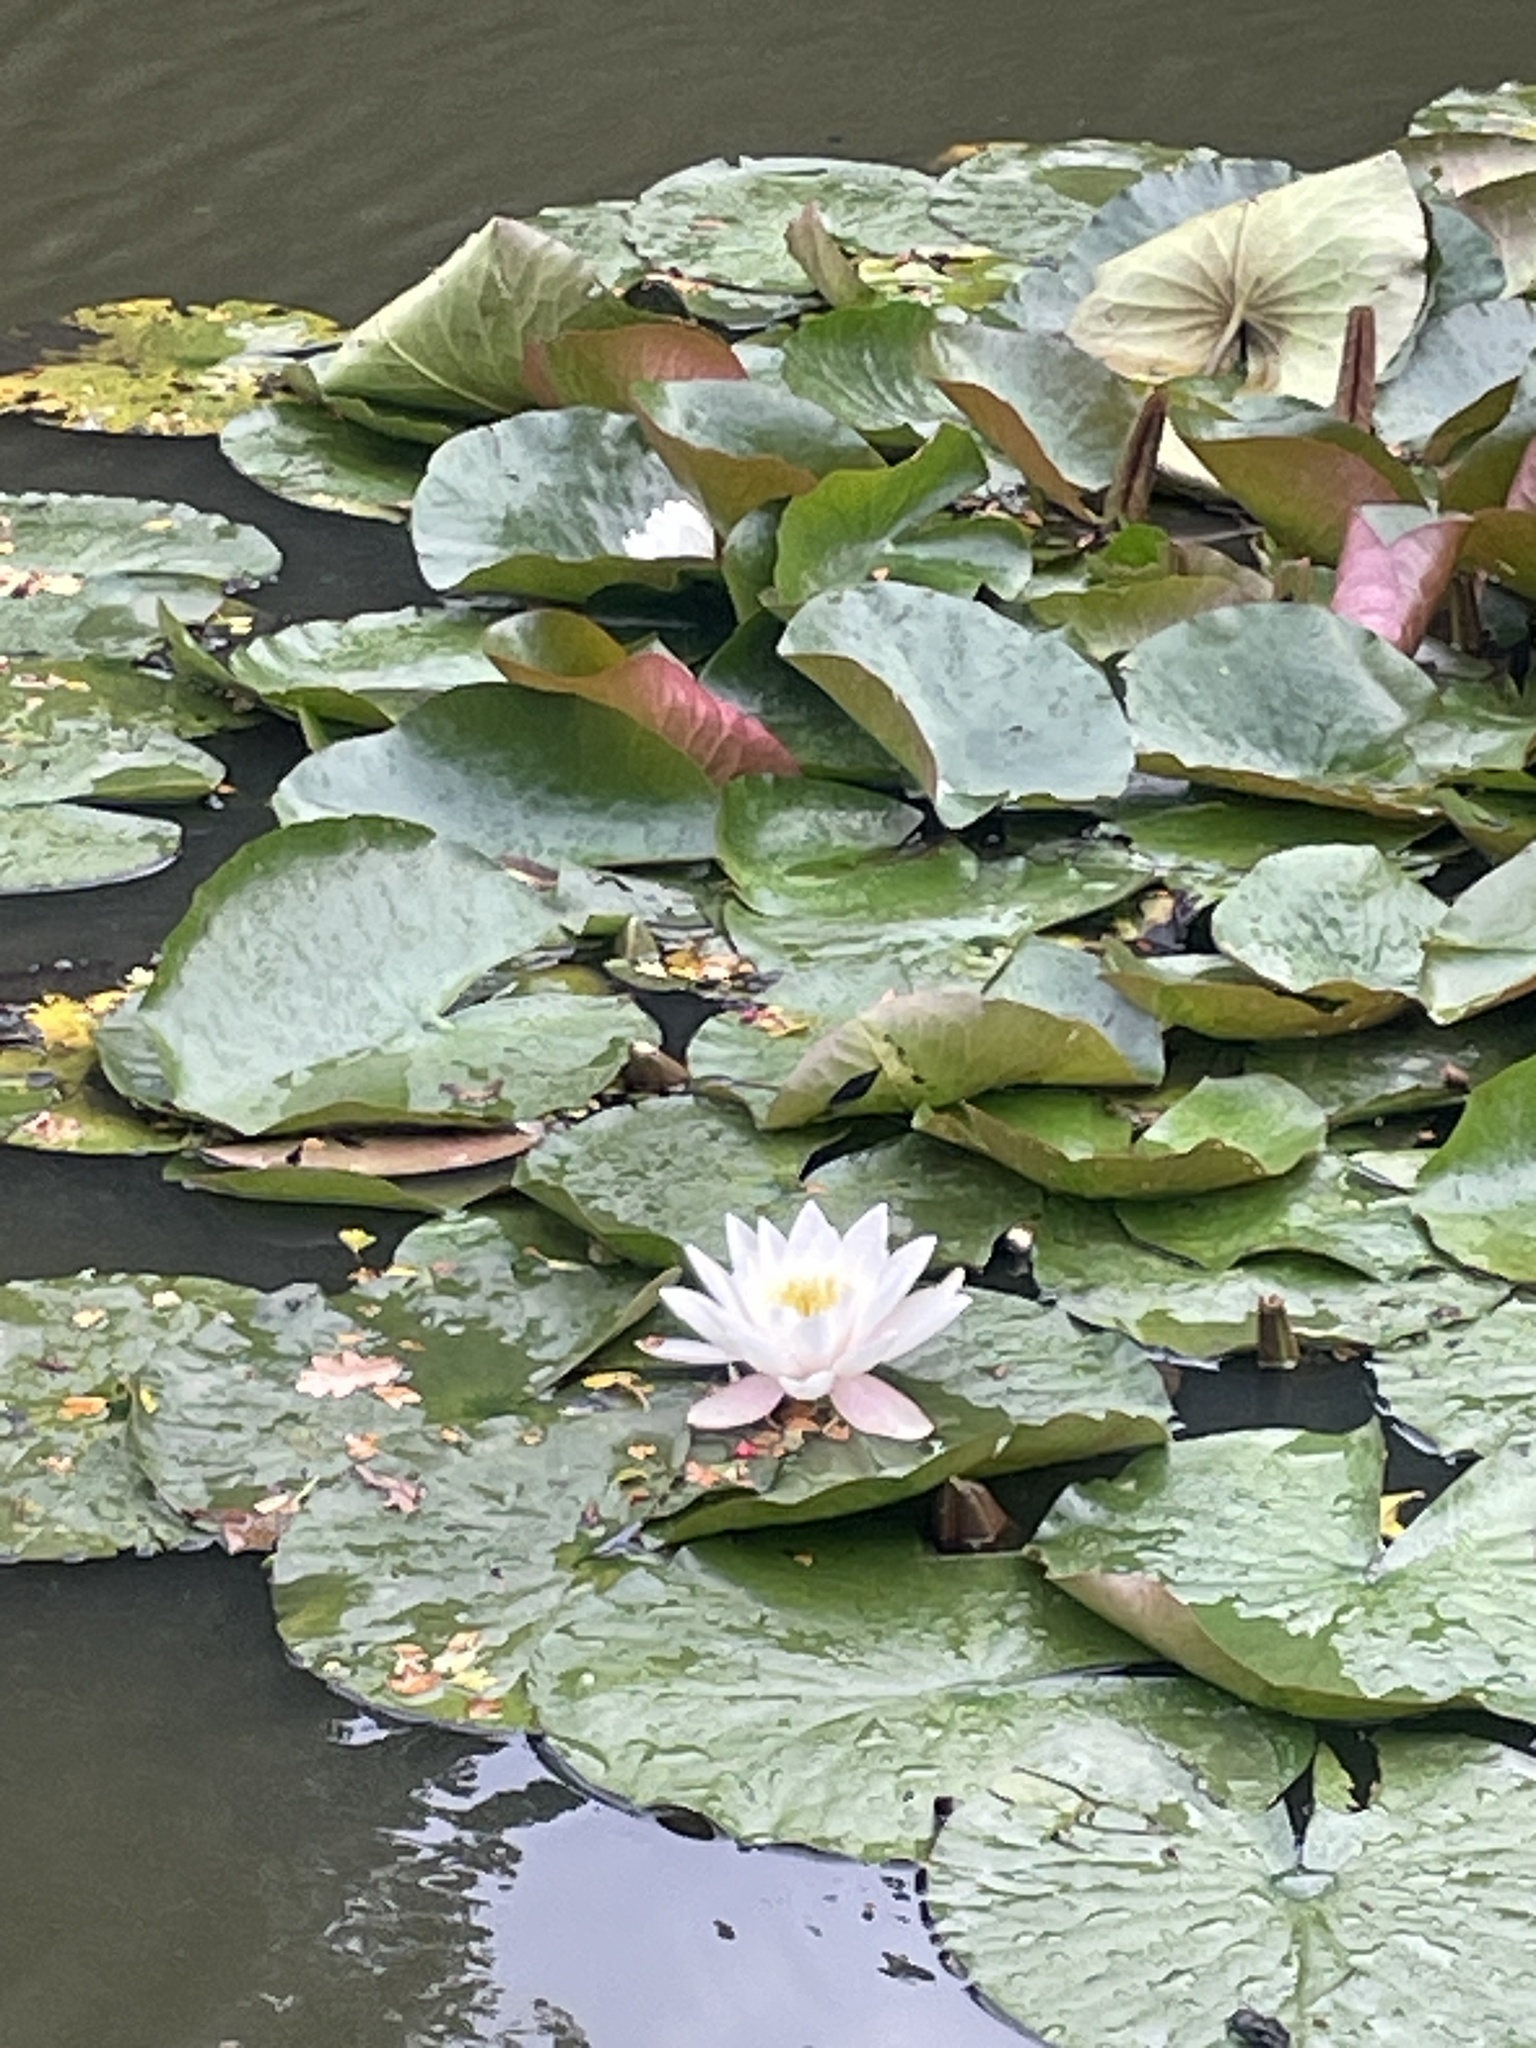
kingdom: Plantae
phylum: Tracheophyta
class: Magnoliopsida
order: Nymphaeales
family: Nymphaeaceae
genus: Nymphaea
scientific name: Nymphaea alba
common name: White water-lily
